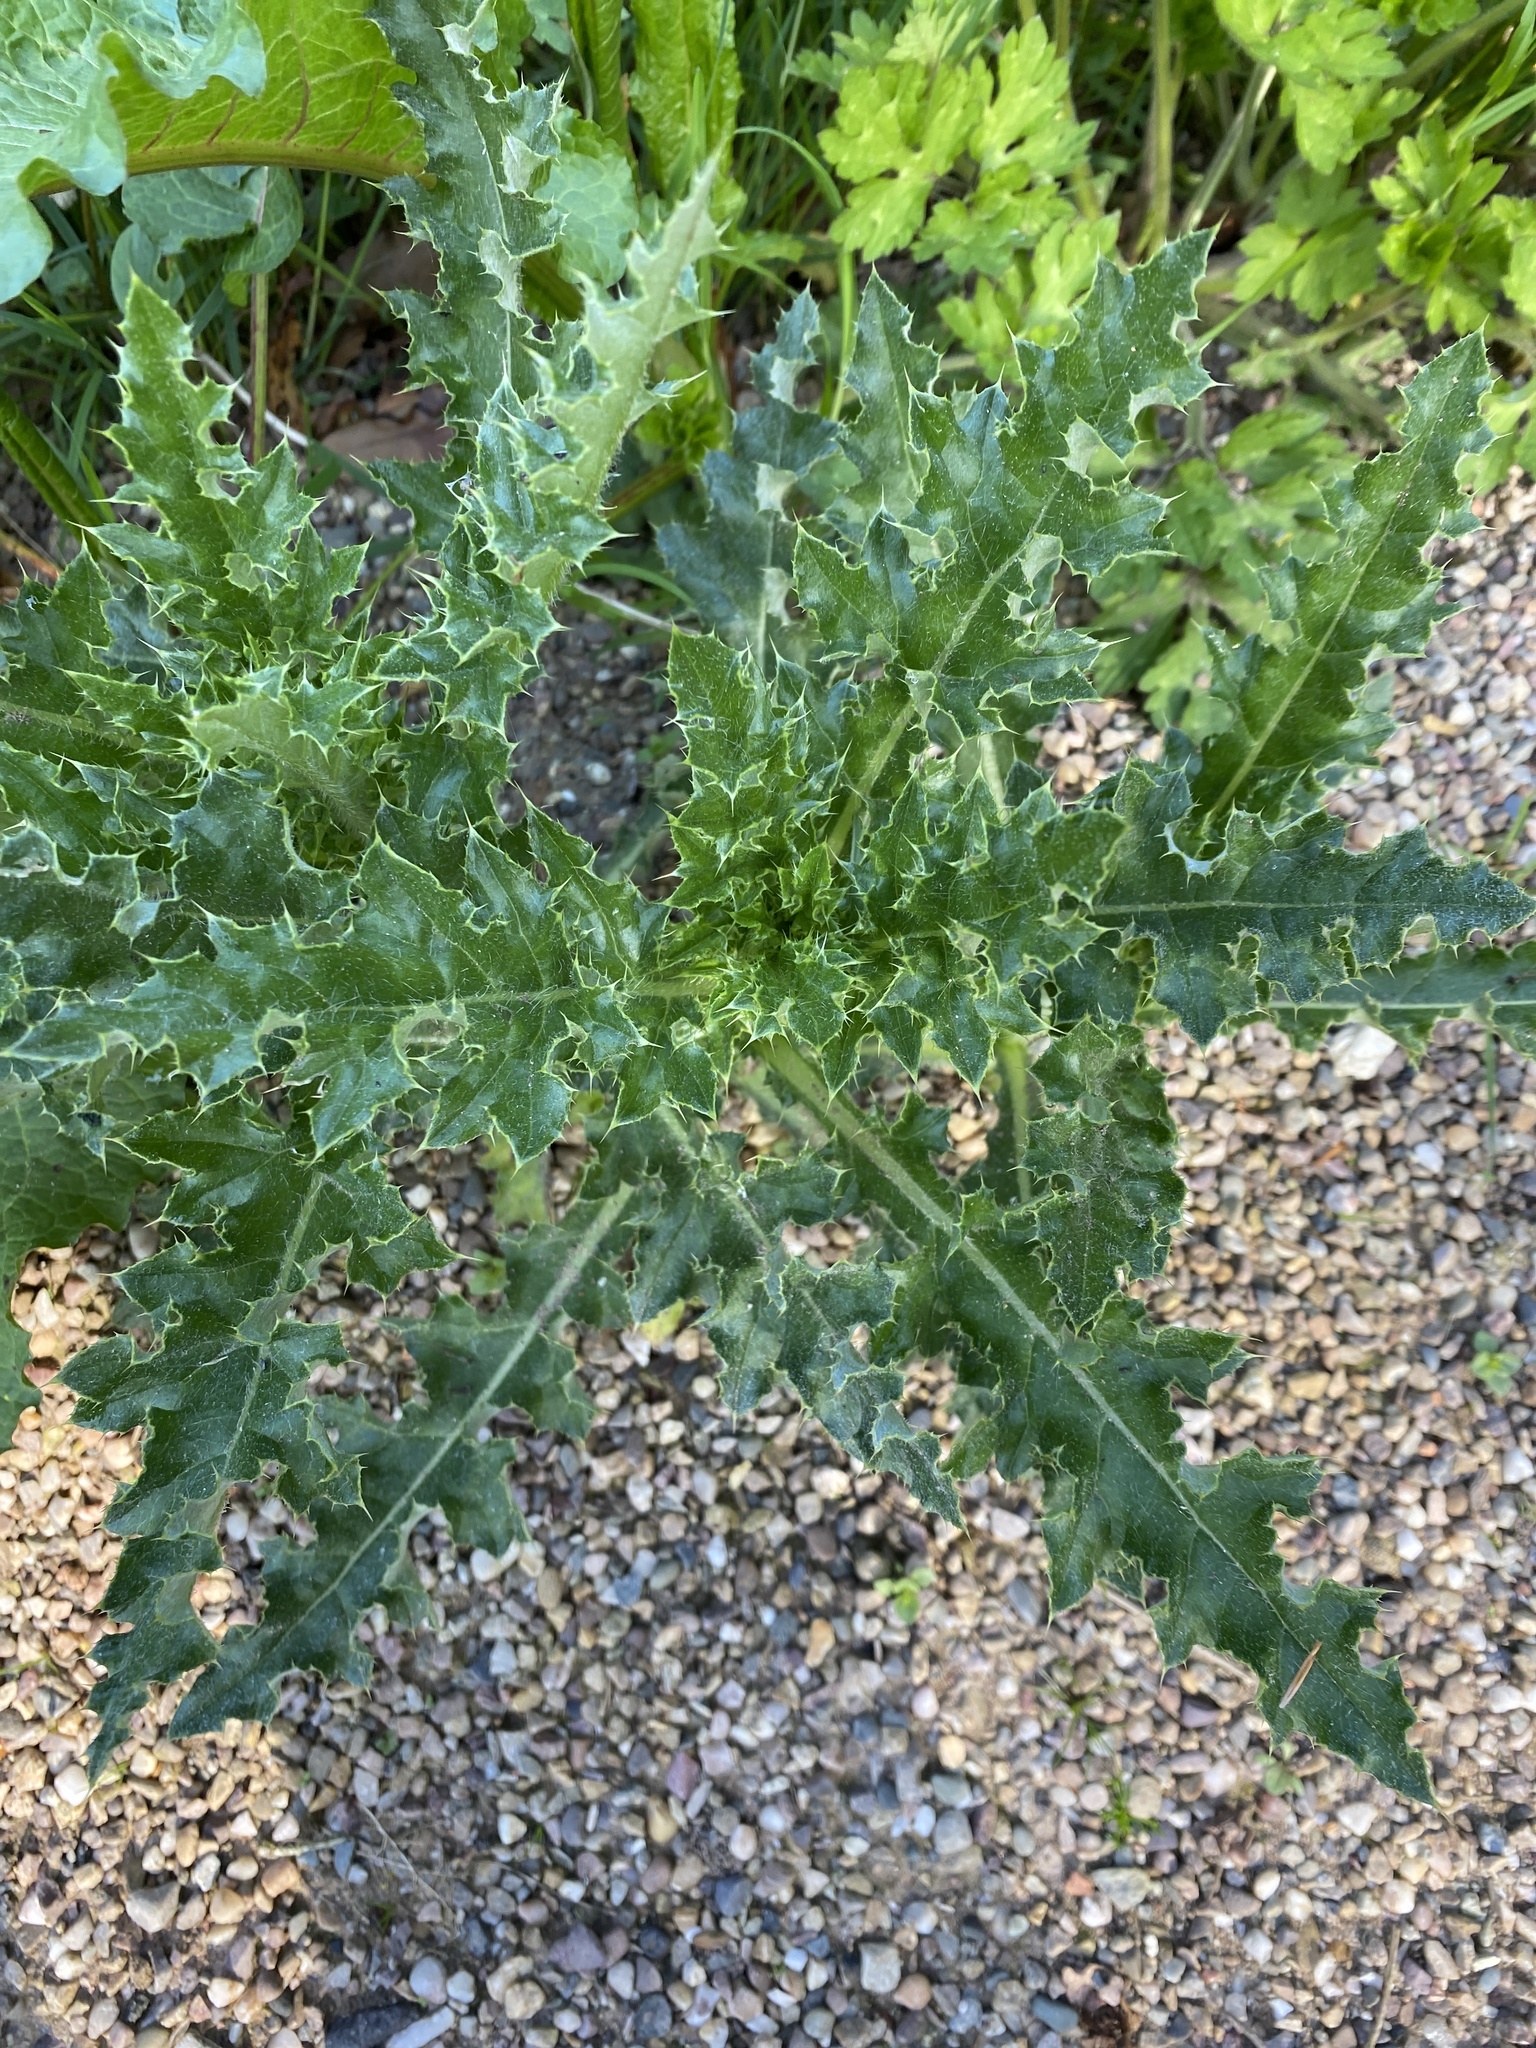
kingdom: Plantae
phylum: Tracheophyta
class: Magnoliopsida
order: Asterales
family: Asteraceae
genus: Cirsium
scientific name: Cirsium arvense
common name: Creeping thistle
